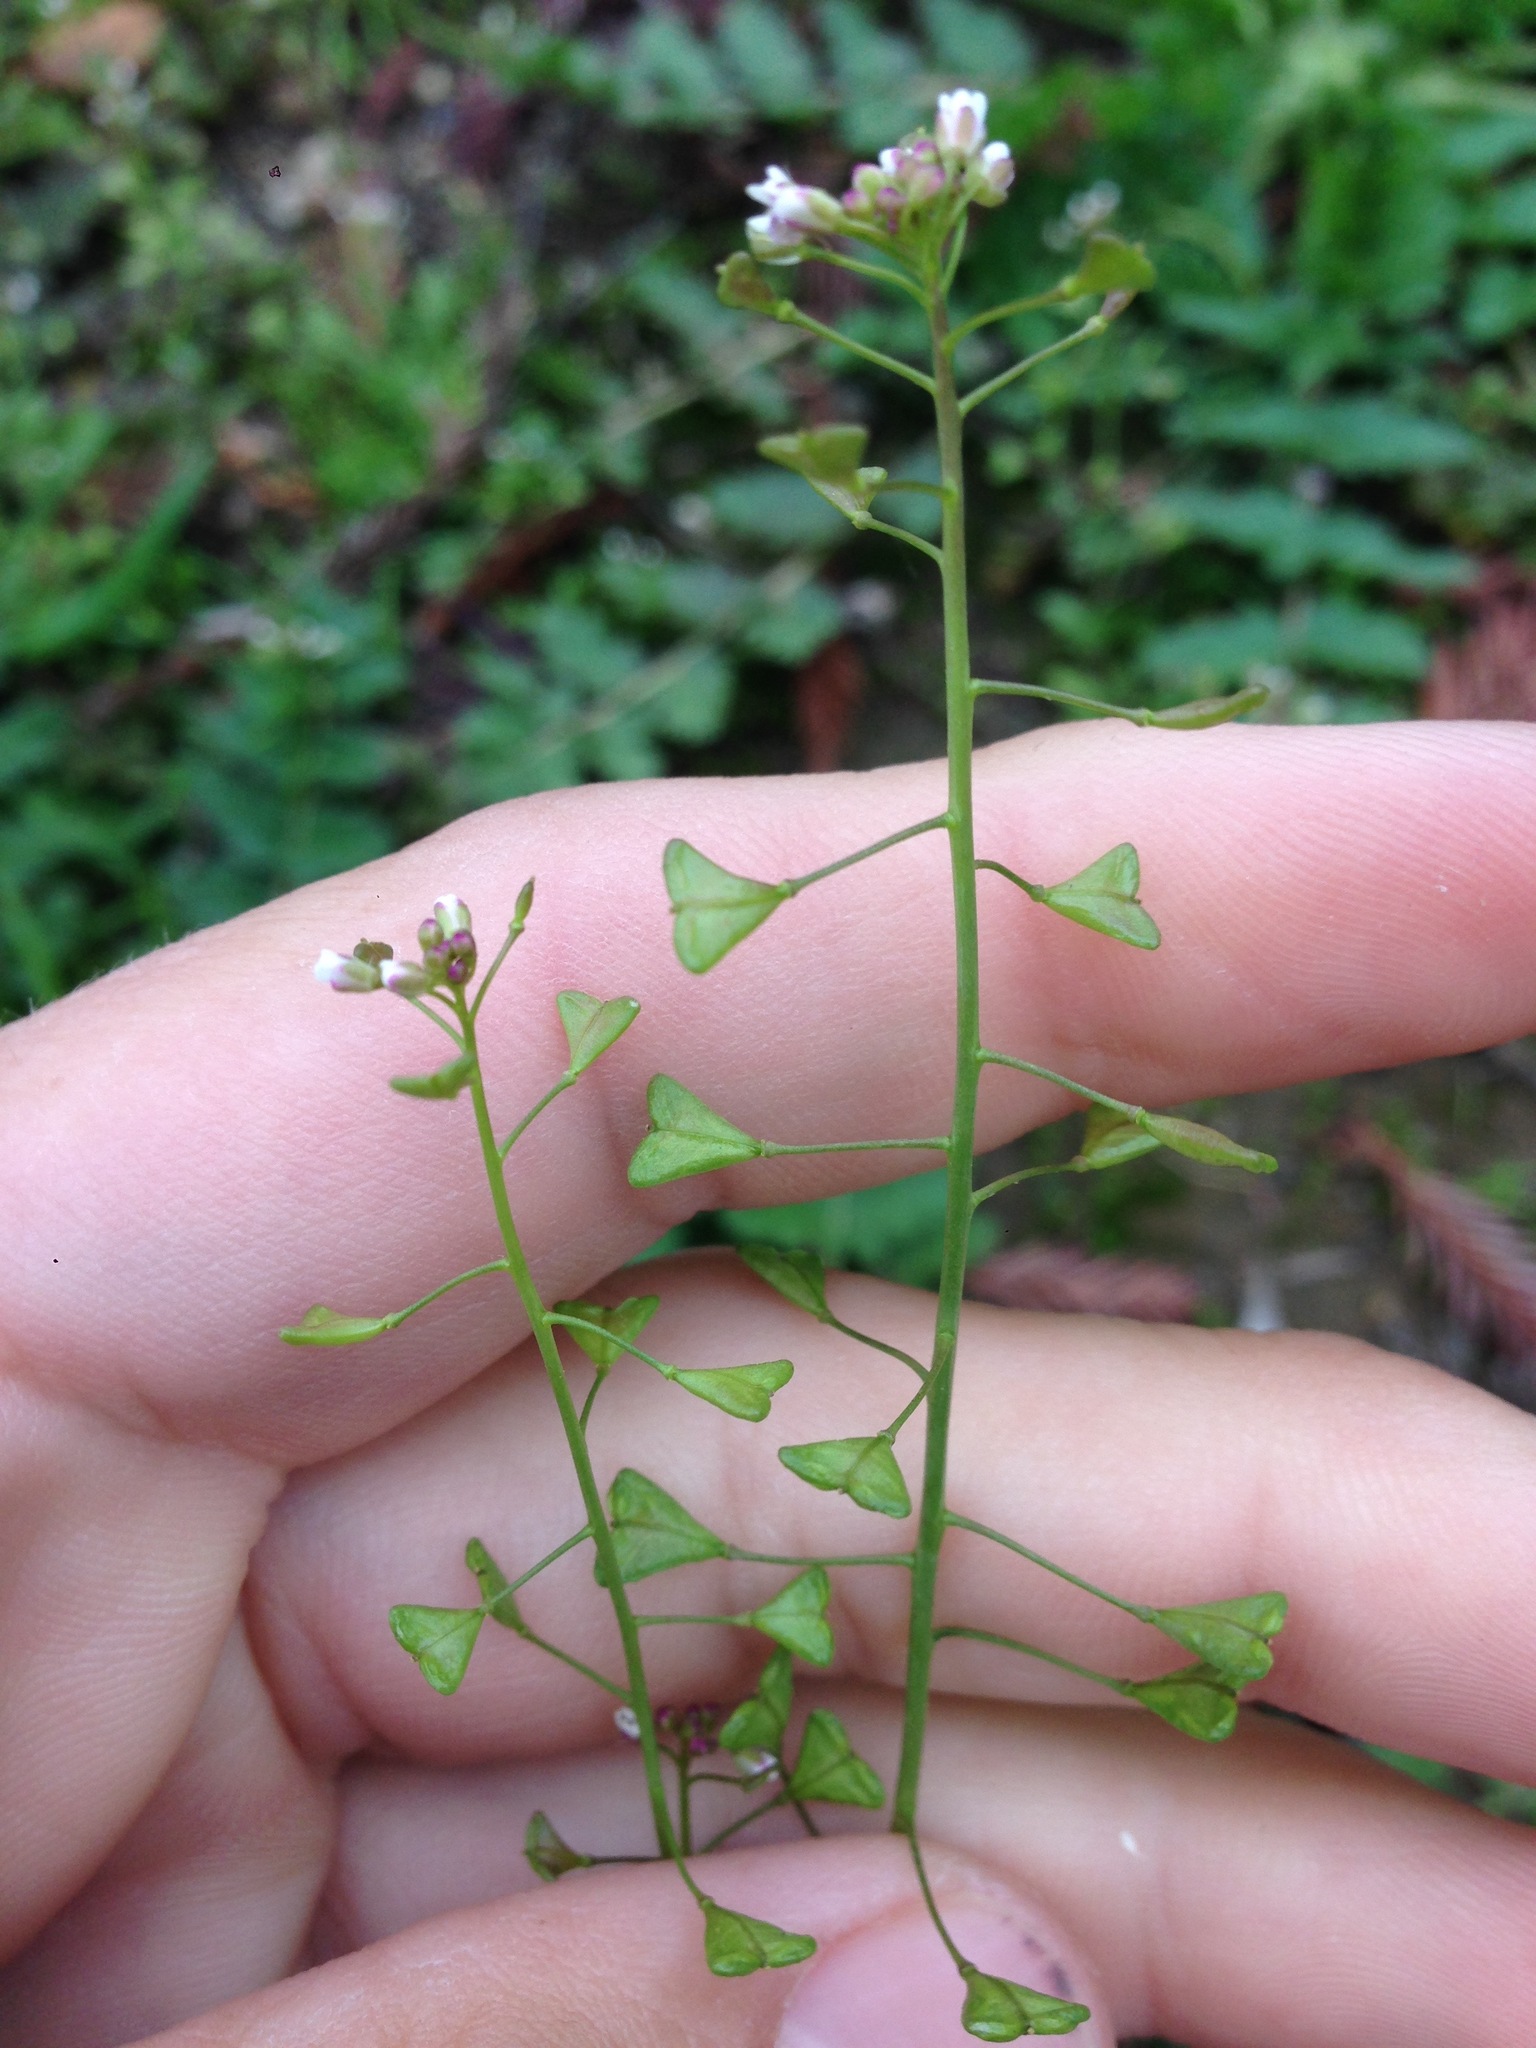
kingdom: Plantae
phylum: Tracheophyta
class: Magnoliopsida
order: Brassicales
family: Brassicaceae
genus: Capsella
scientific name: Capsella bursa-pastoris
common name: Shepherd's purse
